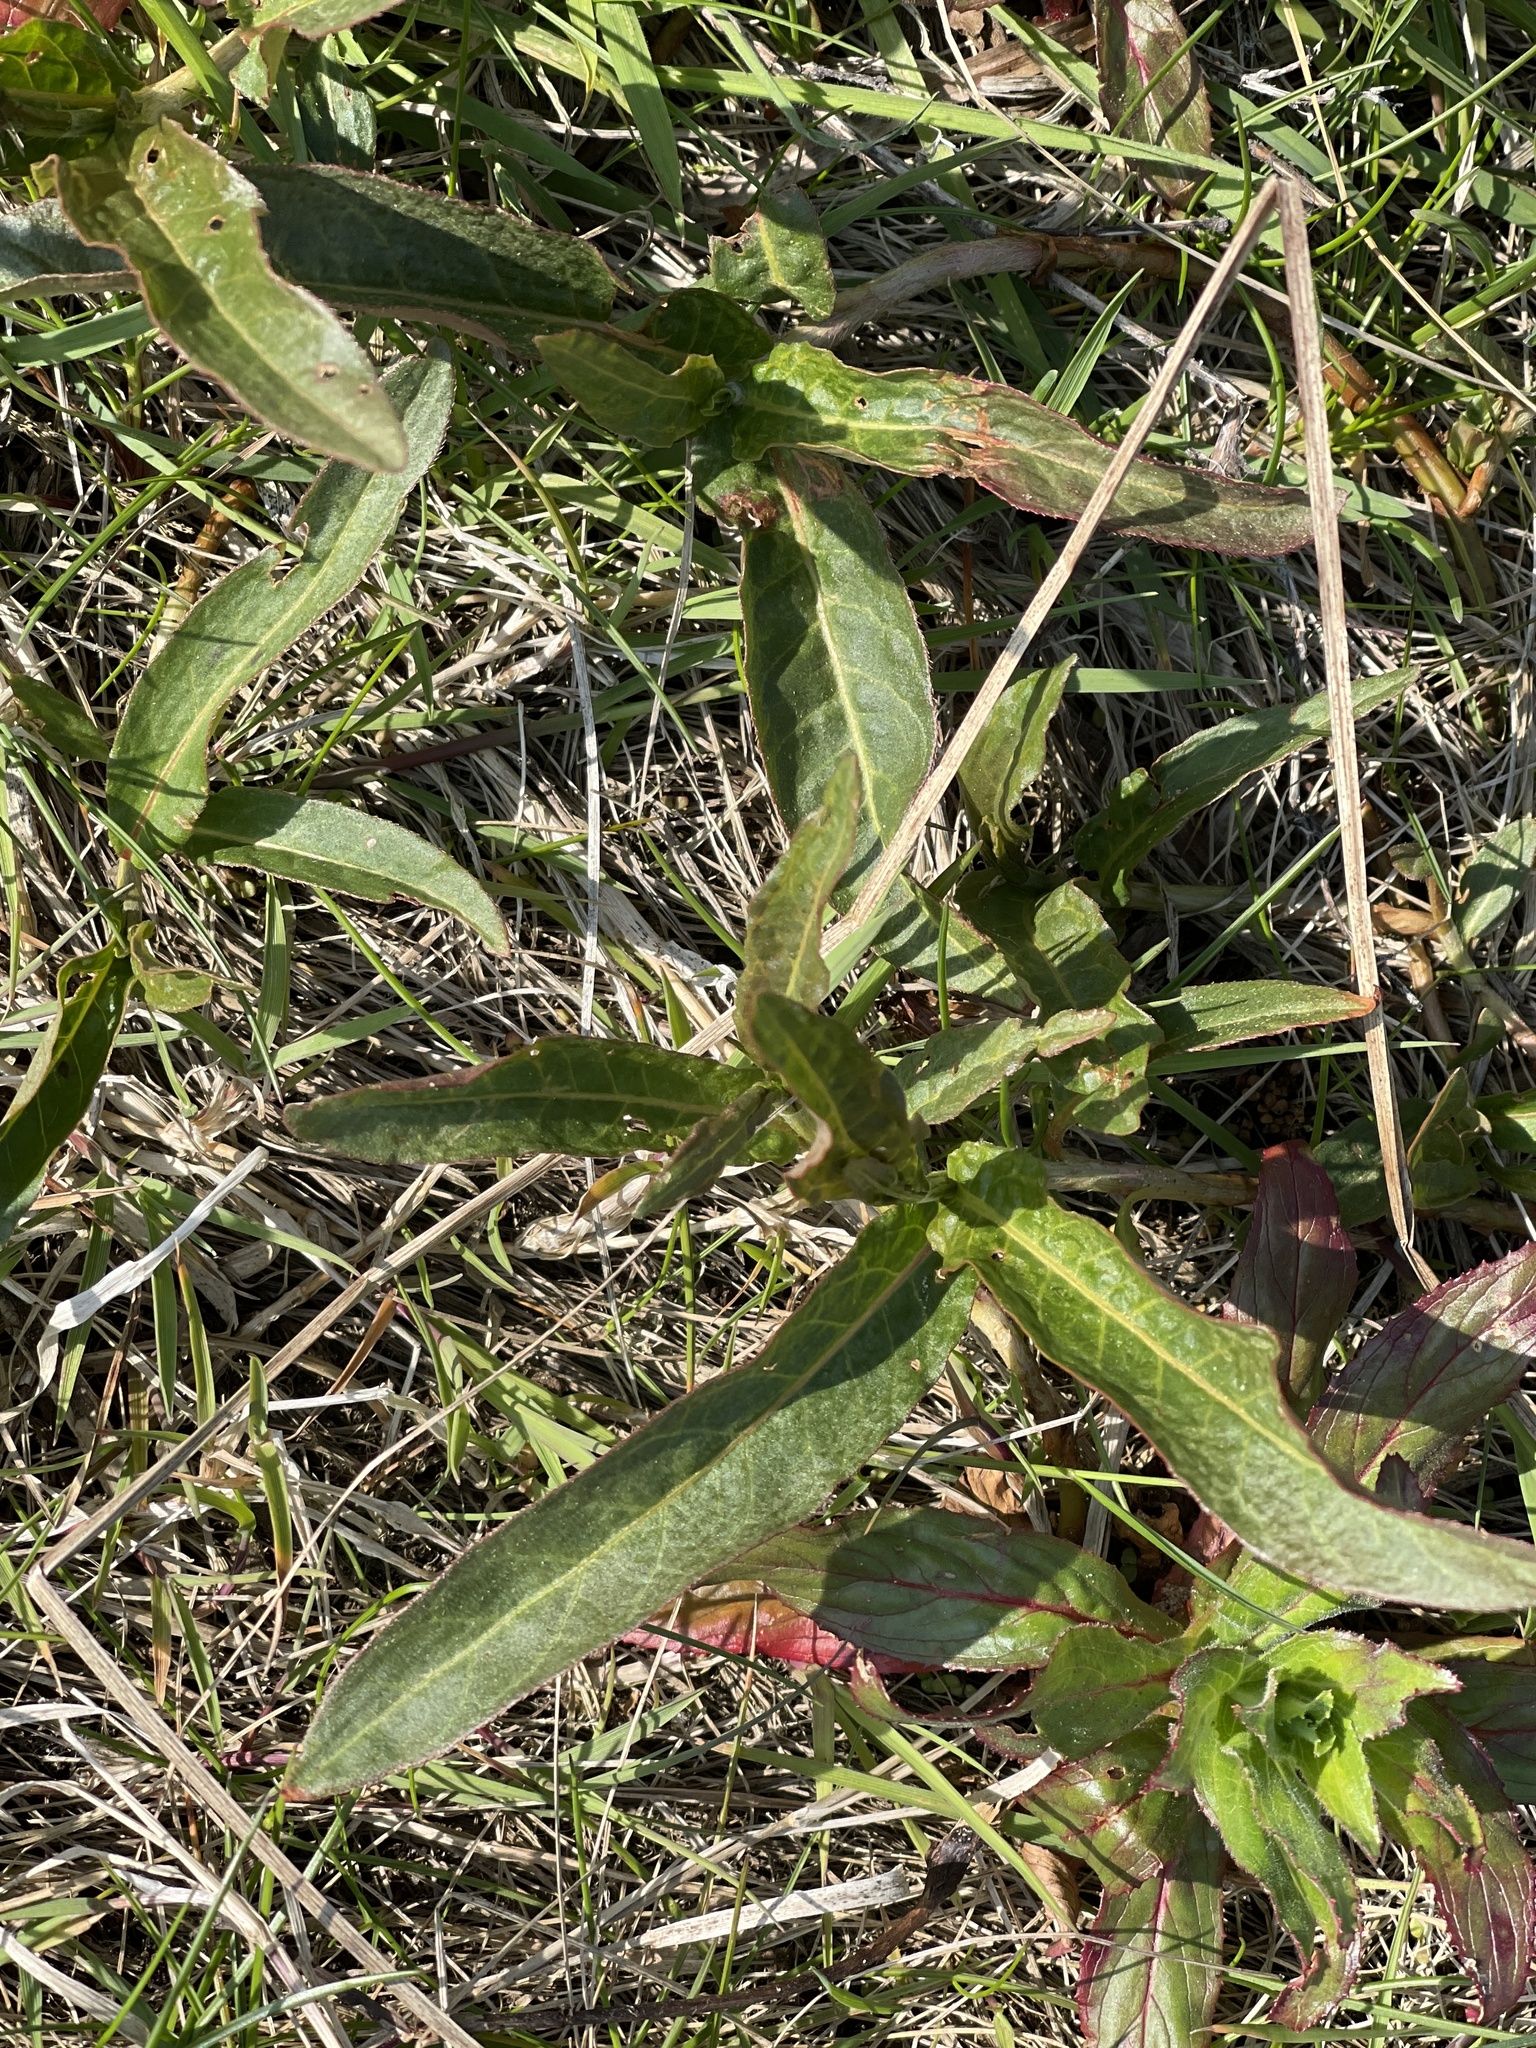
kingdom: Plantae
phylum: Tracheophyta
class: Magnoliopsida
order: Caryophyllales
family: Polygonaceae
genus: Persicaria
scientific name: Persicaria amphibia
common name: Amphibious bistort
